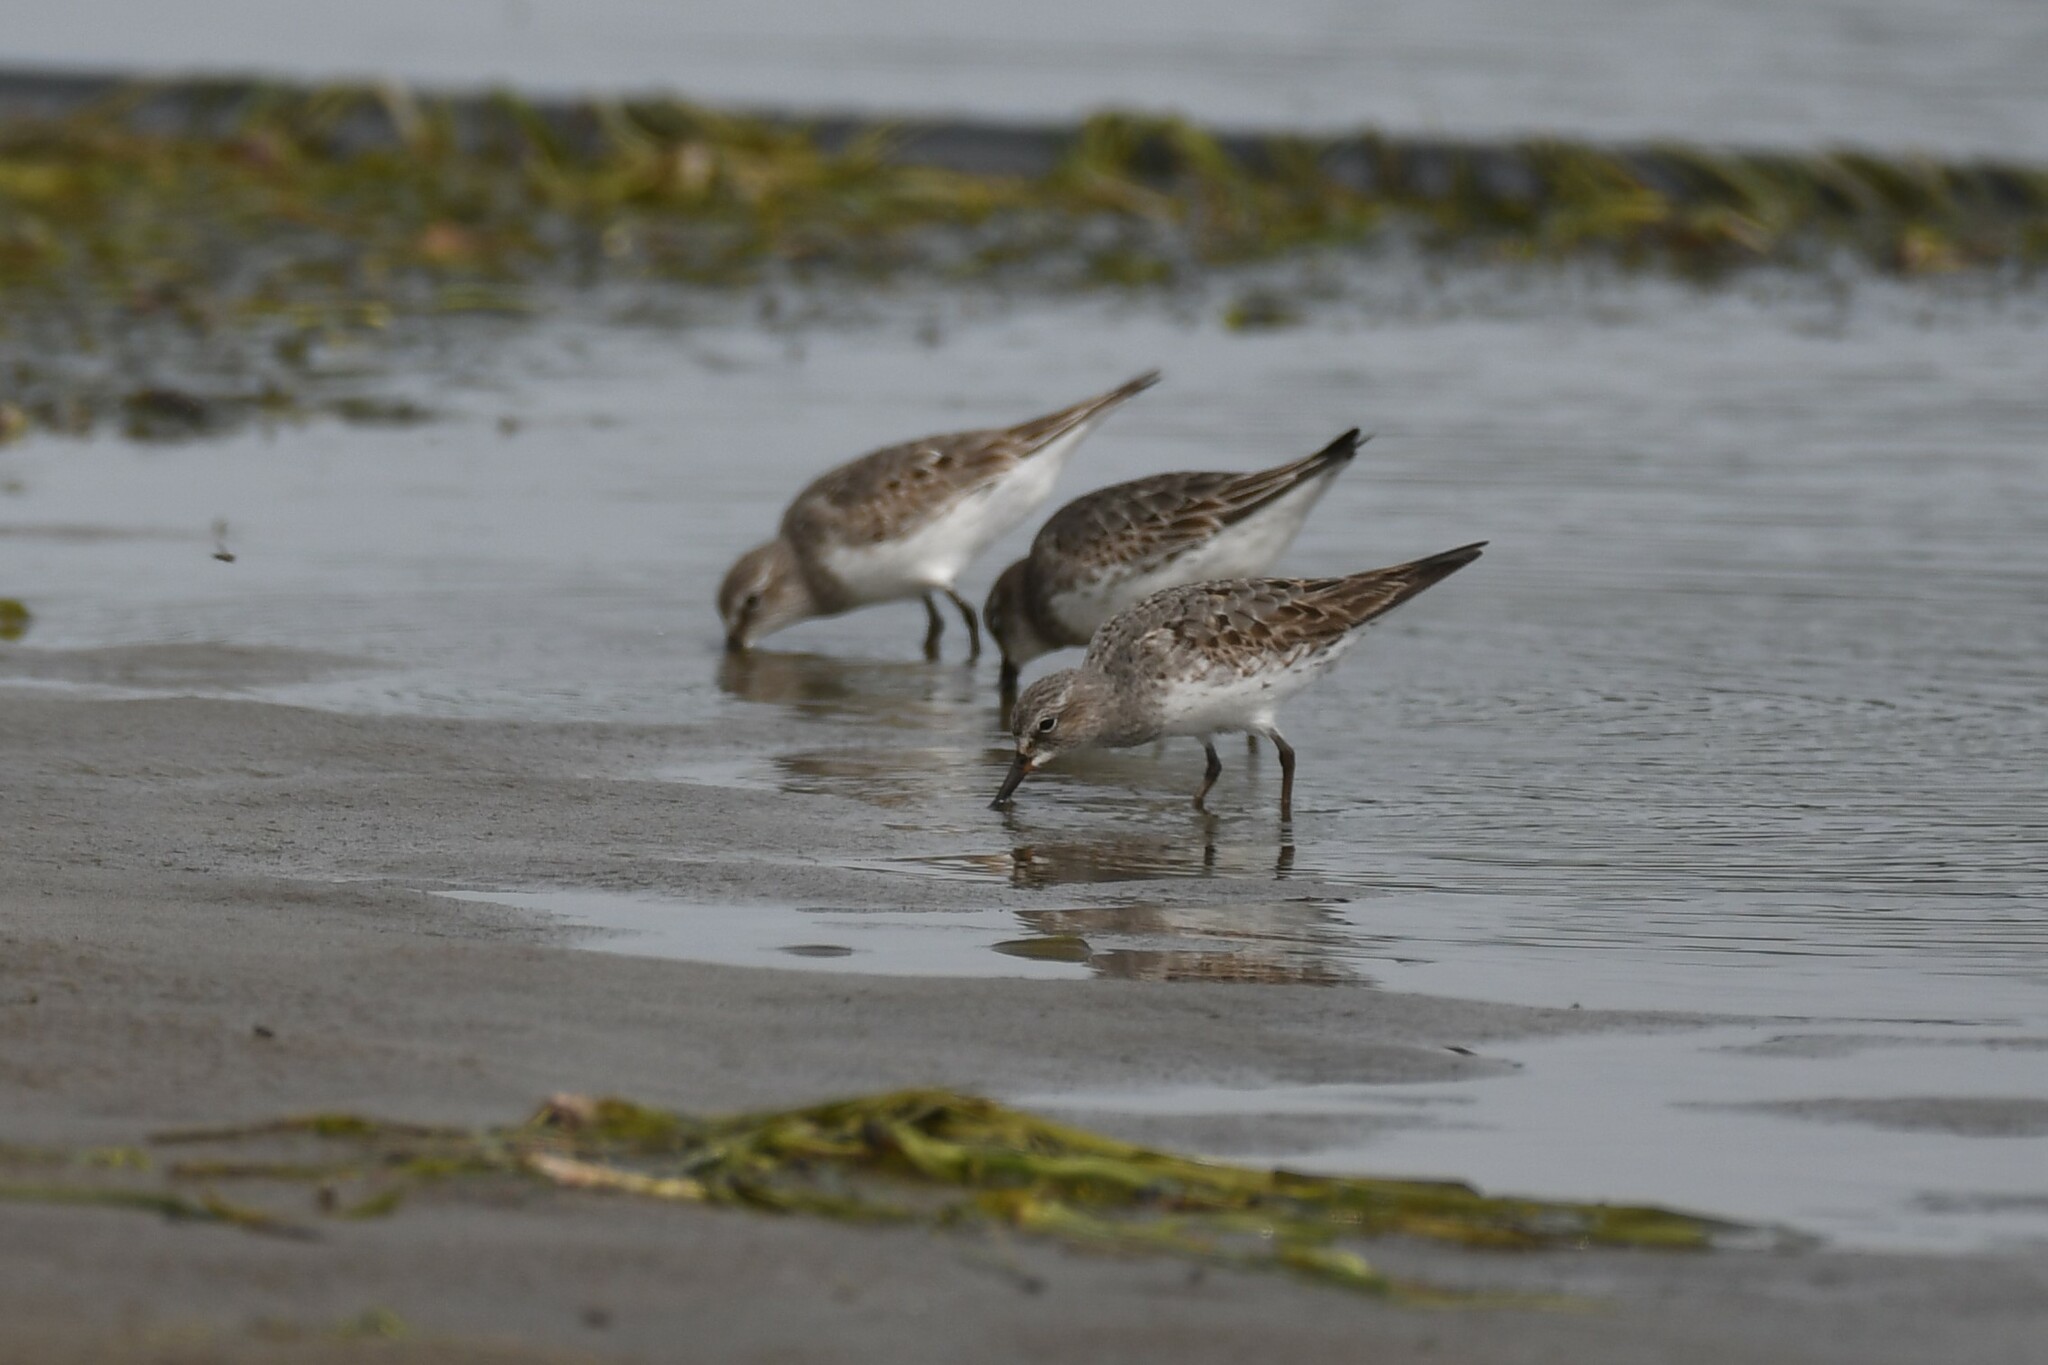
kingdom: Animalia
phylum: Chordata
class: Aves
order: Charadriiformes
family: Scolopacidae
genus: Calidris
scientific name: Calidris fuscicollis
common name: White-rumped sandpiper
